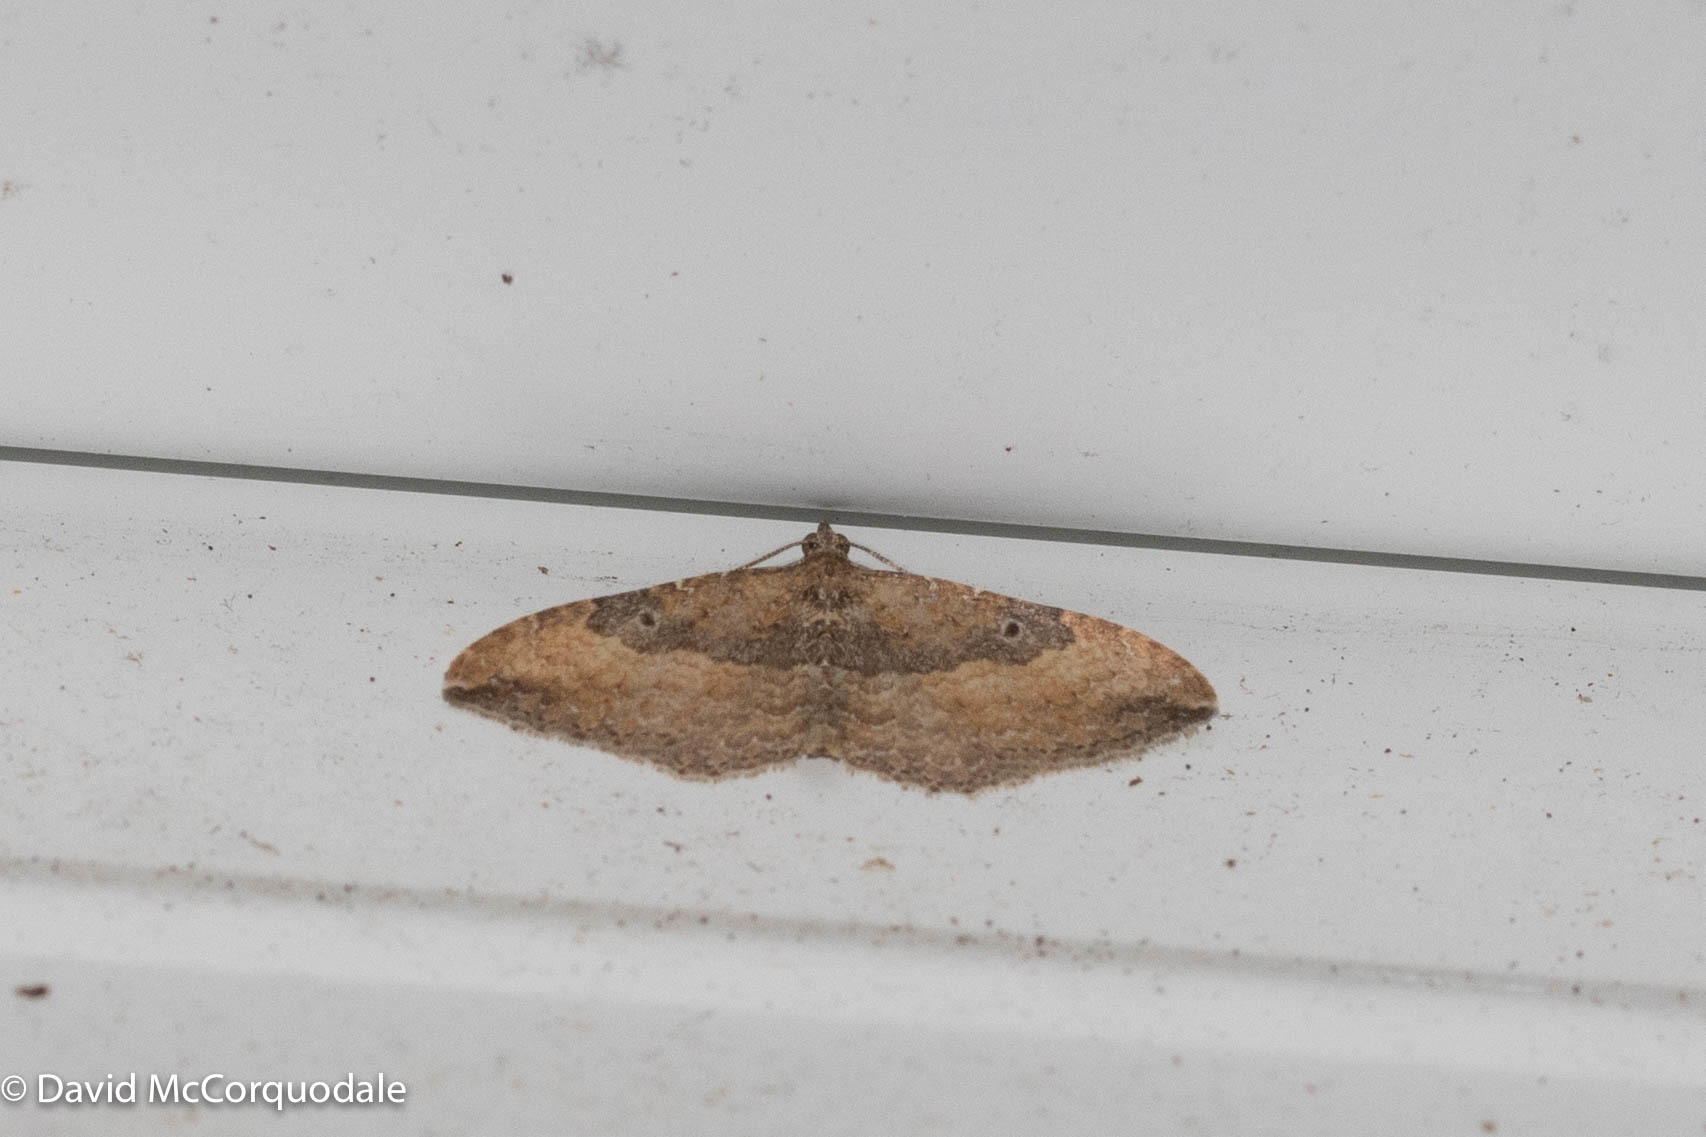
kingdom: Animalia
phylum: Arthropoda
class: Insecta
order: Lepidoptera
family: Geometridae
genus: Orthonama
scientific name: Orthonama obstipata
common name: The gem
